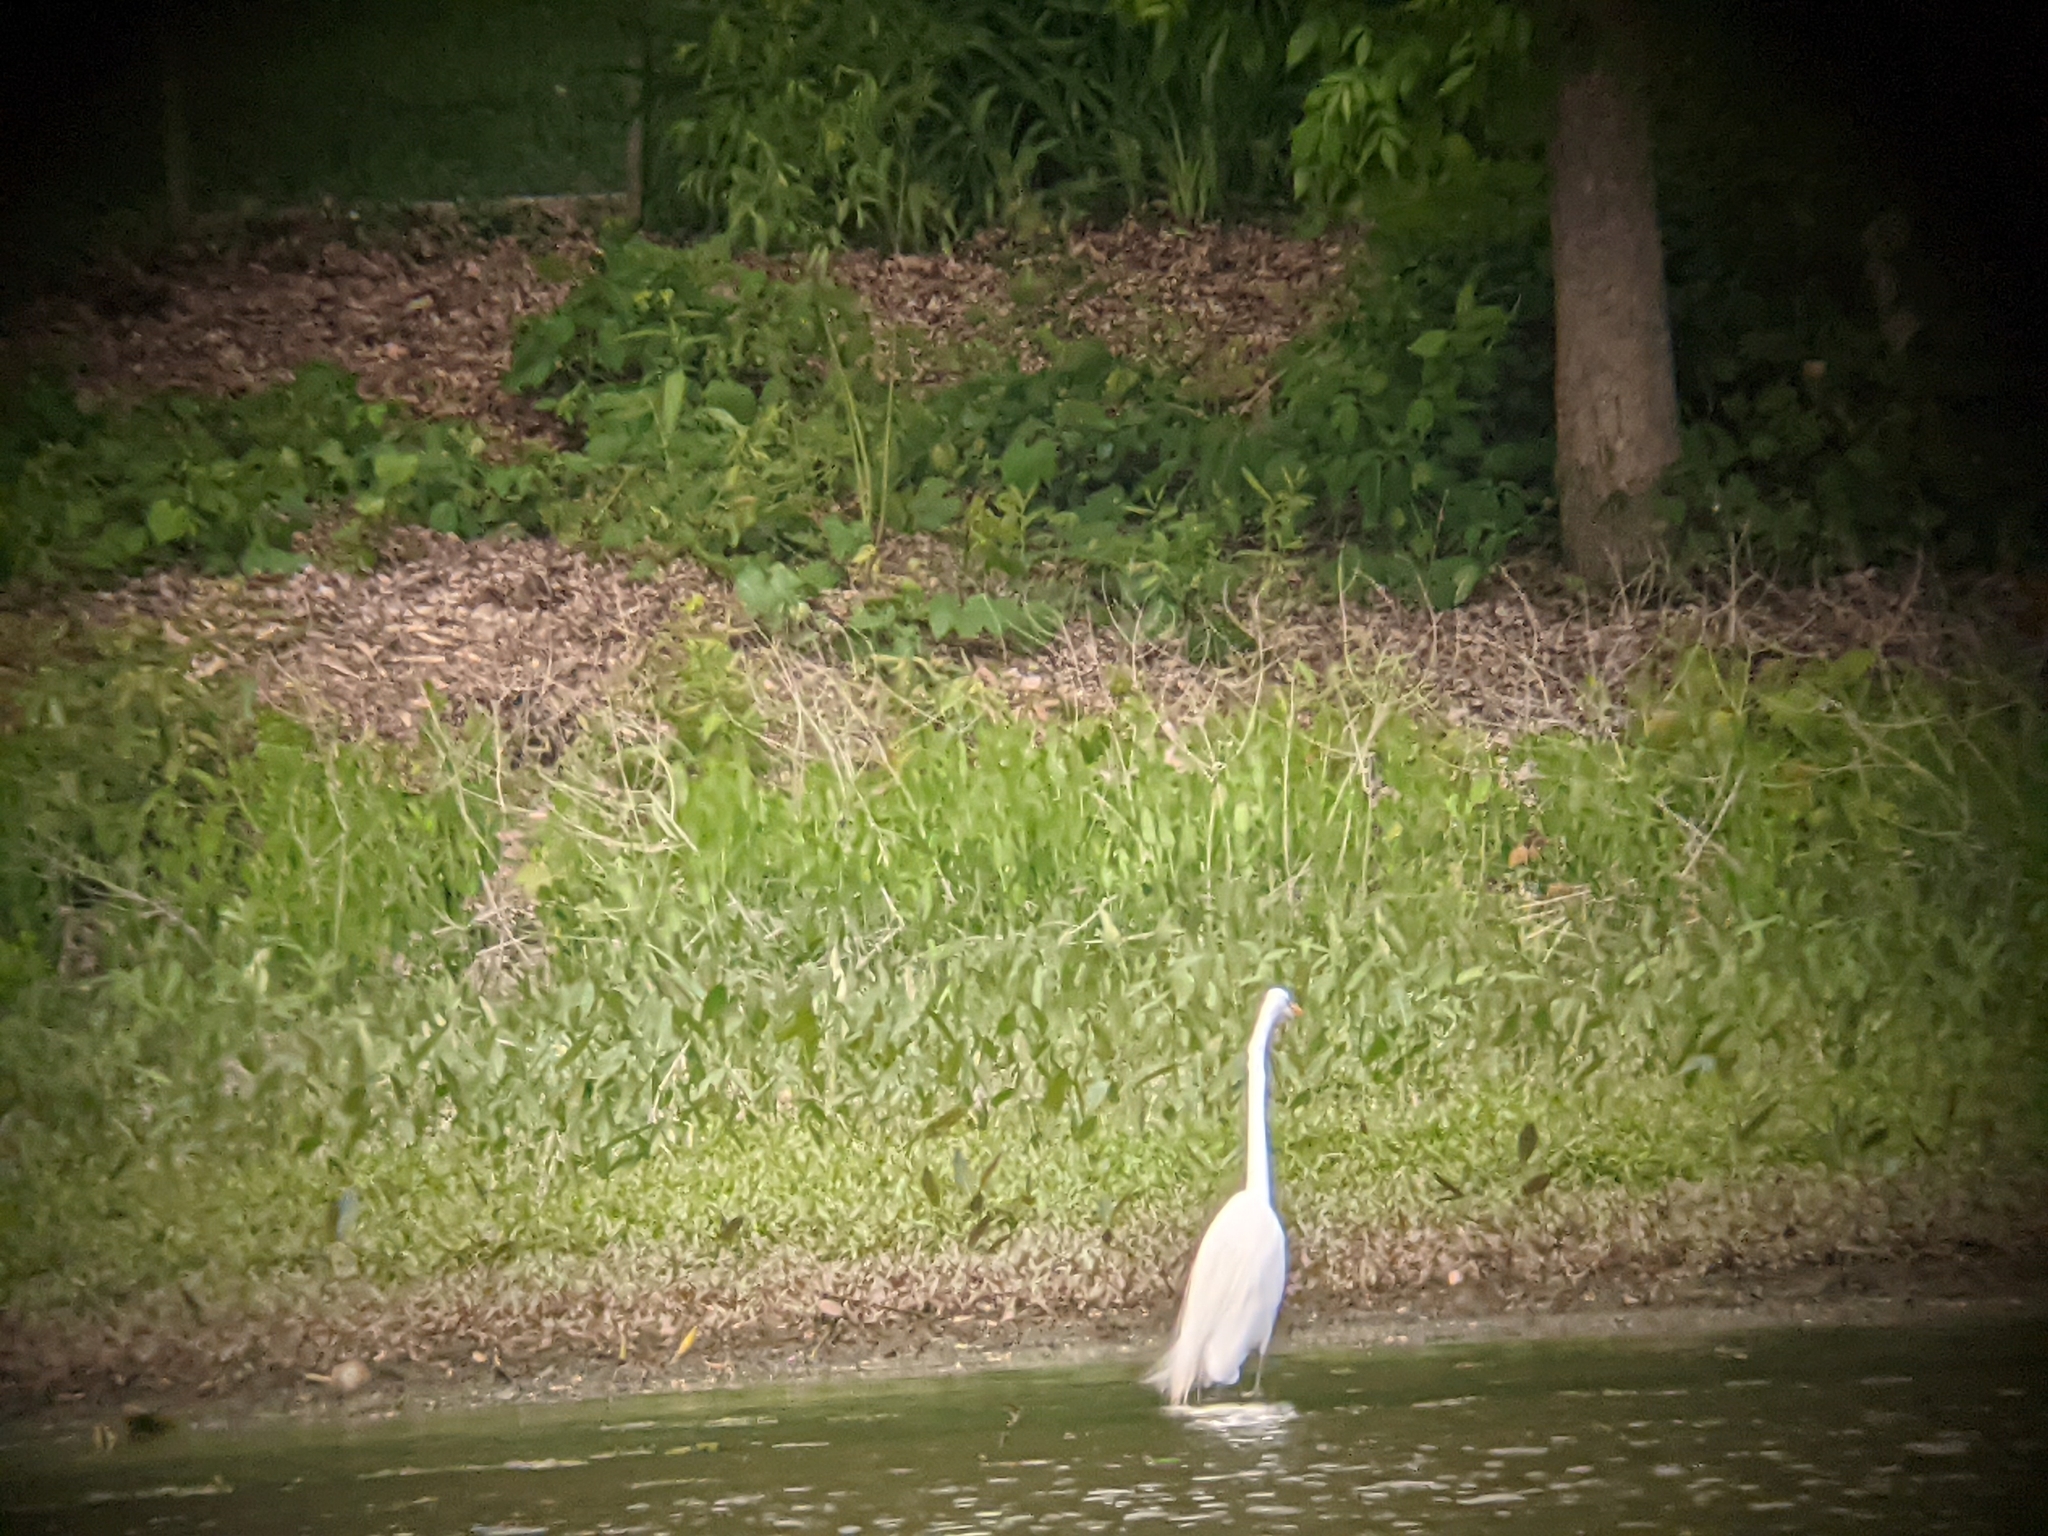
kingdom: Animalia
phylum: Chordata
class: Aves
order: Pelecaniformes
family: Ardeidae
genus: Ardea
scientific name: Ardea alba
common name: Great egret
